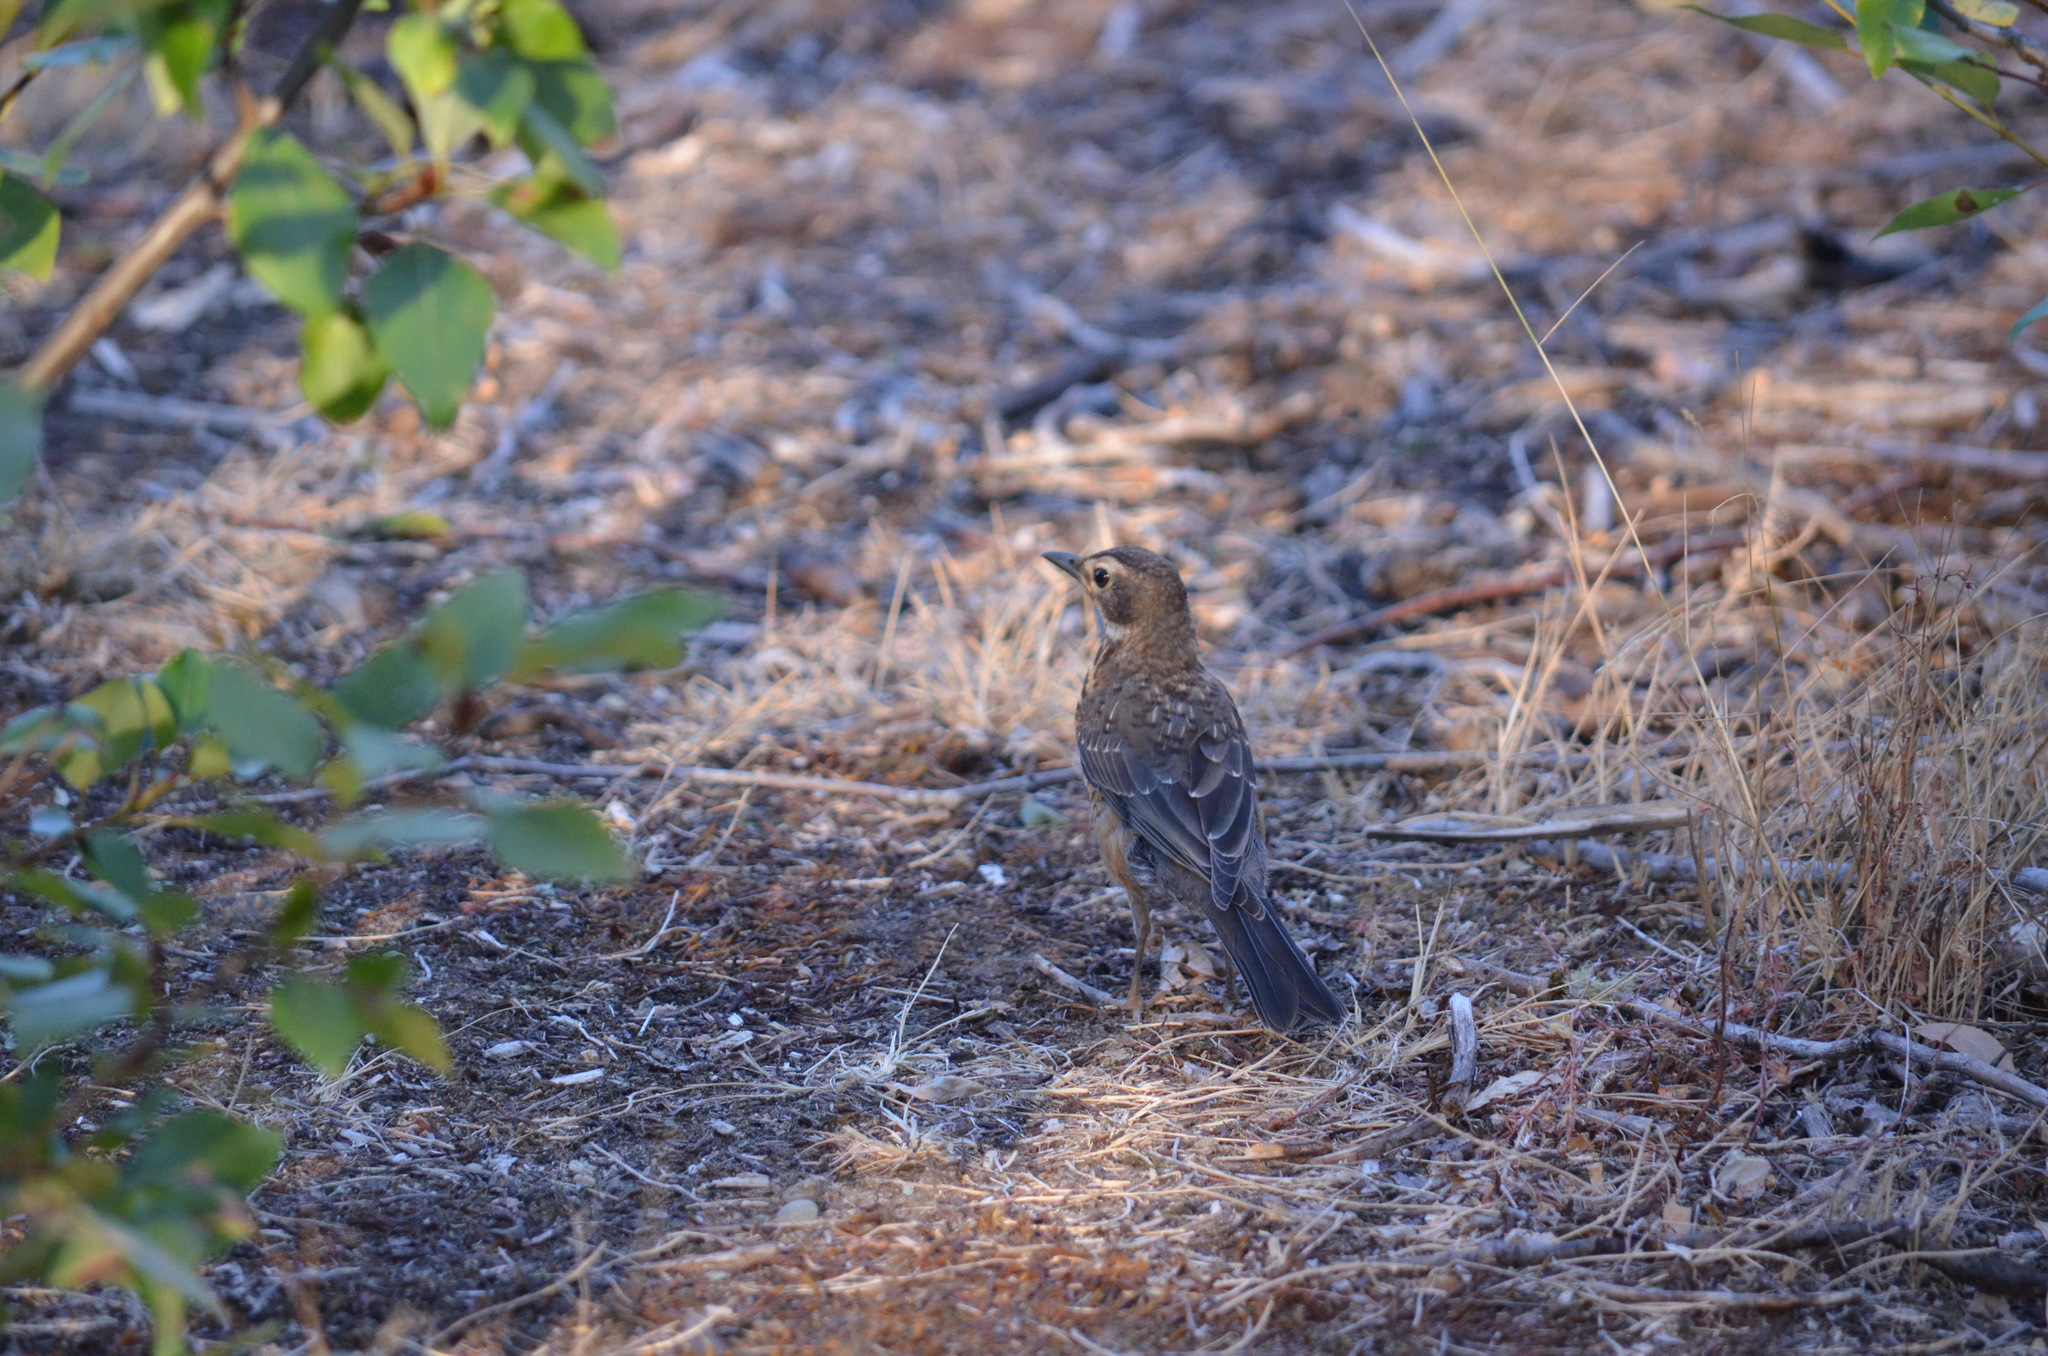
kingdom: Animalia
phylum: Chordata
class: Aves
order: Passeriformes
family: Turdidae
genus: Turdus
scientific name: Turdus migratorius
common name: American robin
